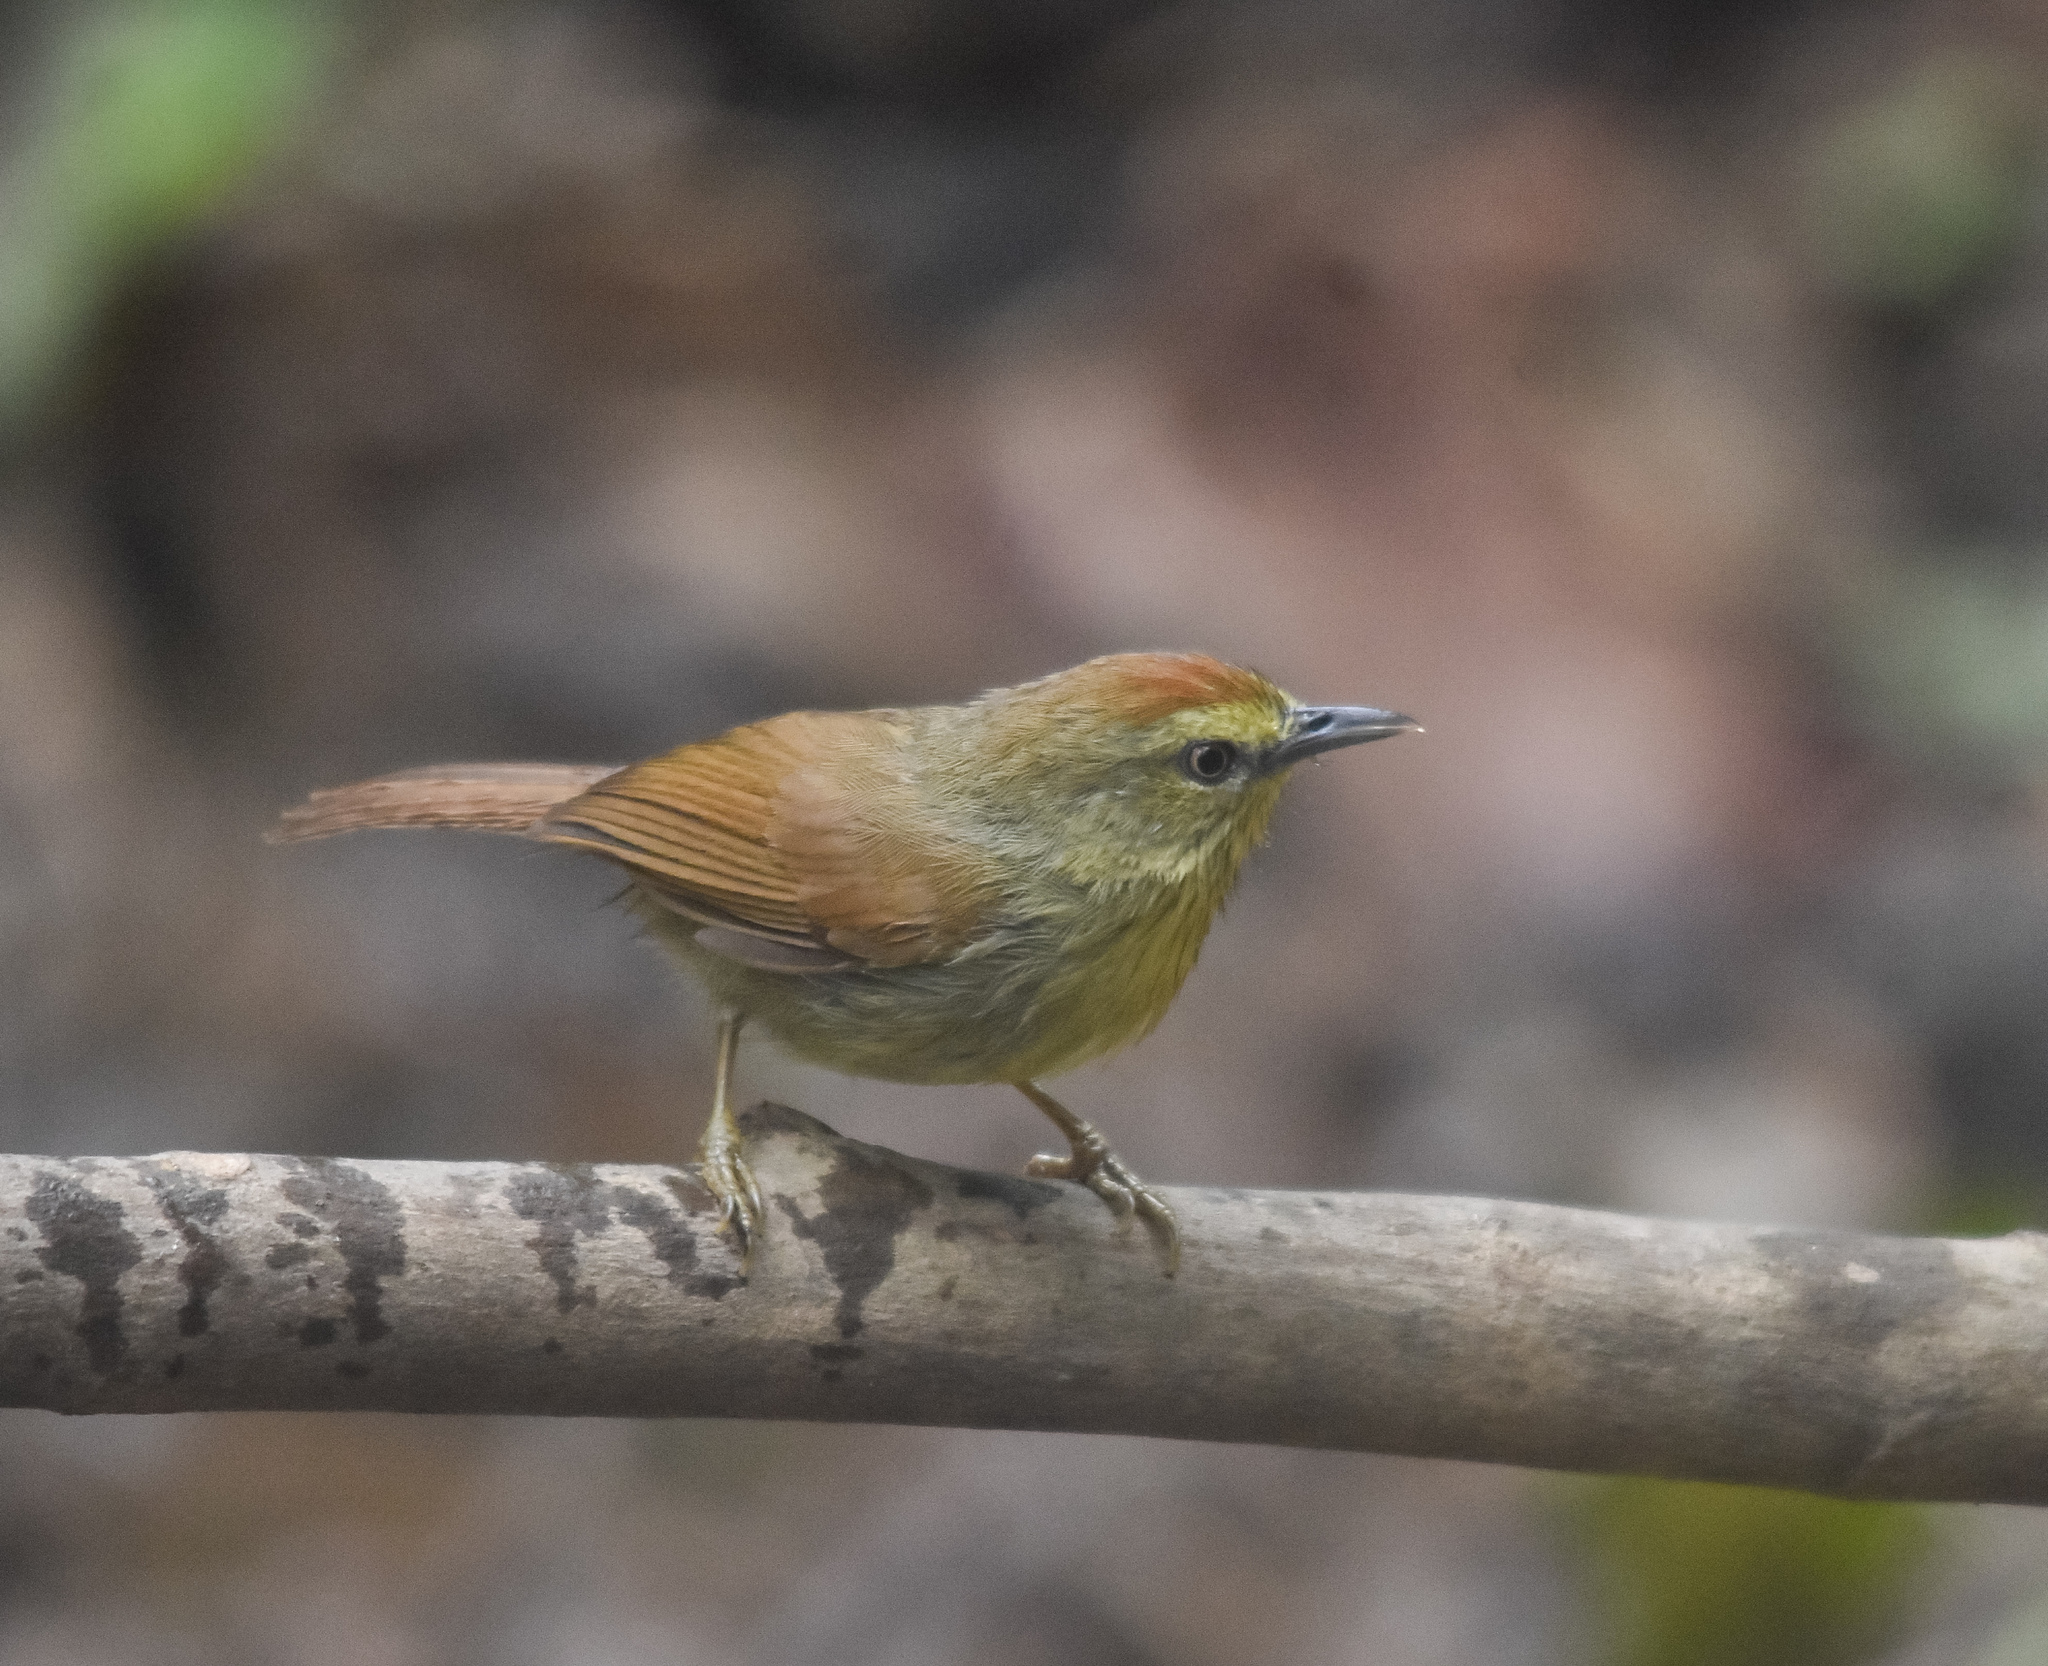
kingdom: Animalia
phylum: Chordata
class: Aves
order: Passeriformes
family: Timaliidae
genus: Macronus
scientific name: Macronus gularis
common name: Striped tit-babbler
